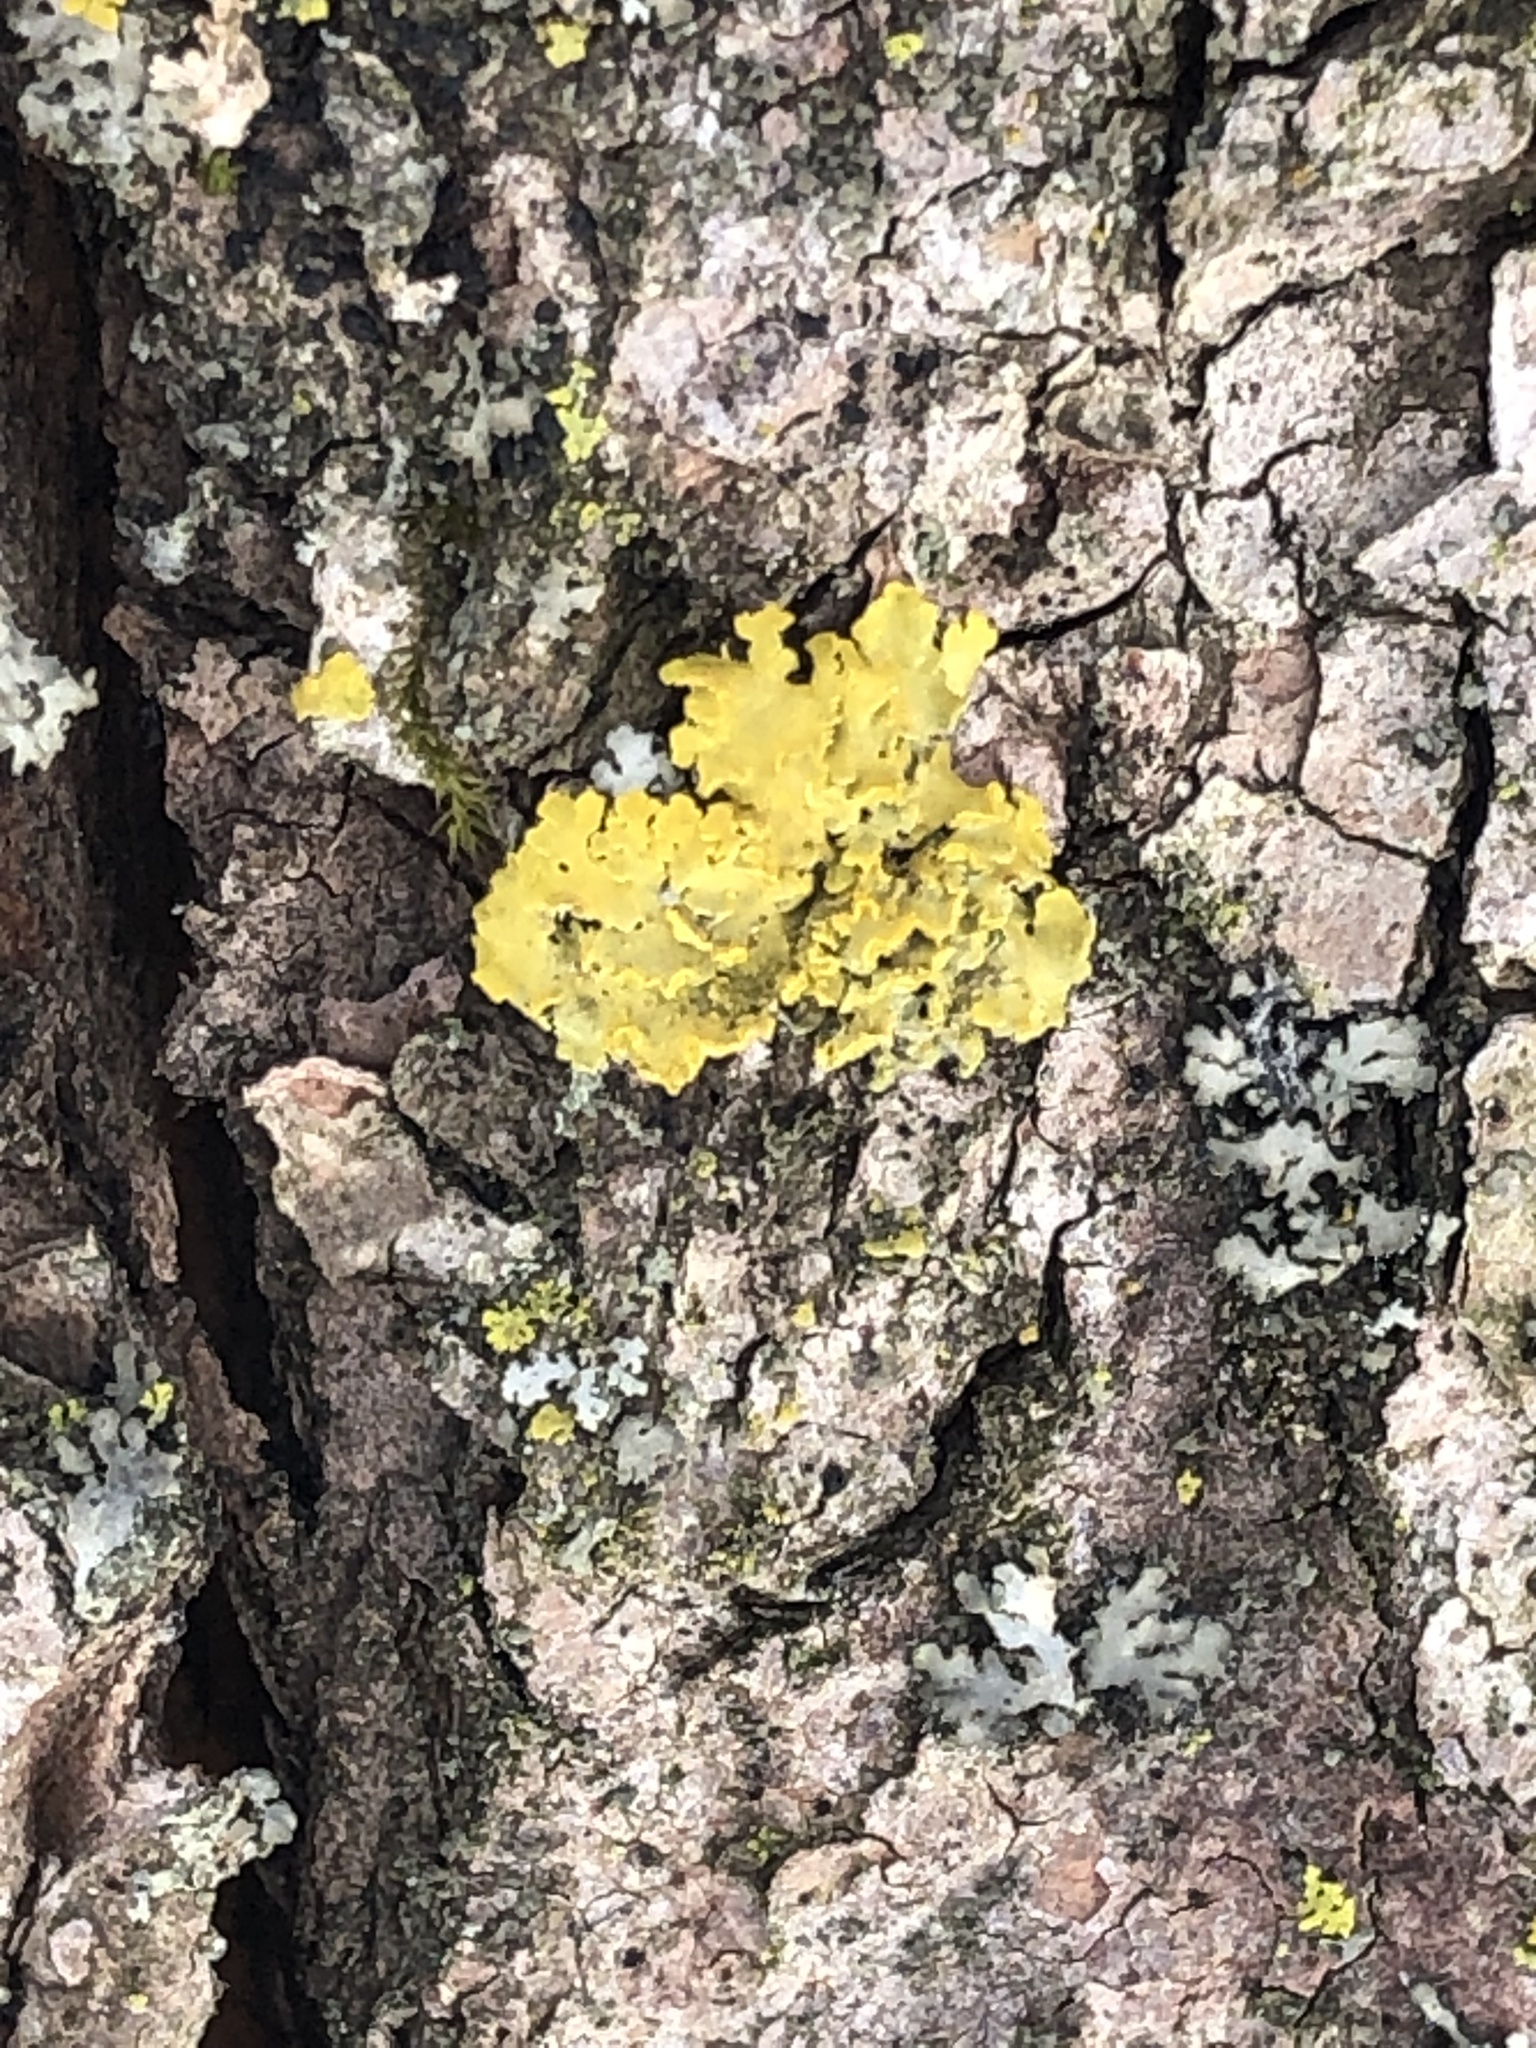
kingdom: Fungi
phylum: Ascomycota
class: Lecanoromycetes
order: Teloschistales
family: Teloschistaceae
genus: Xanthoria
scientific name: Xanthoria ulophyllodes
